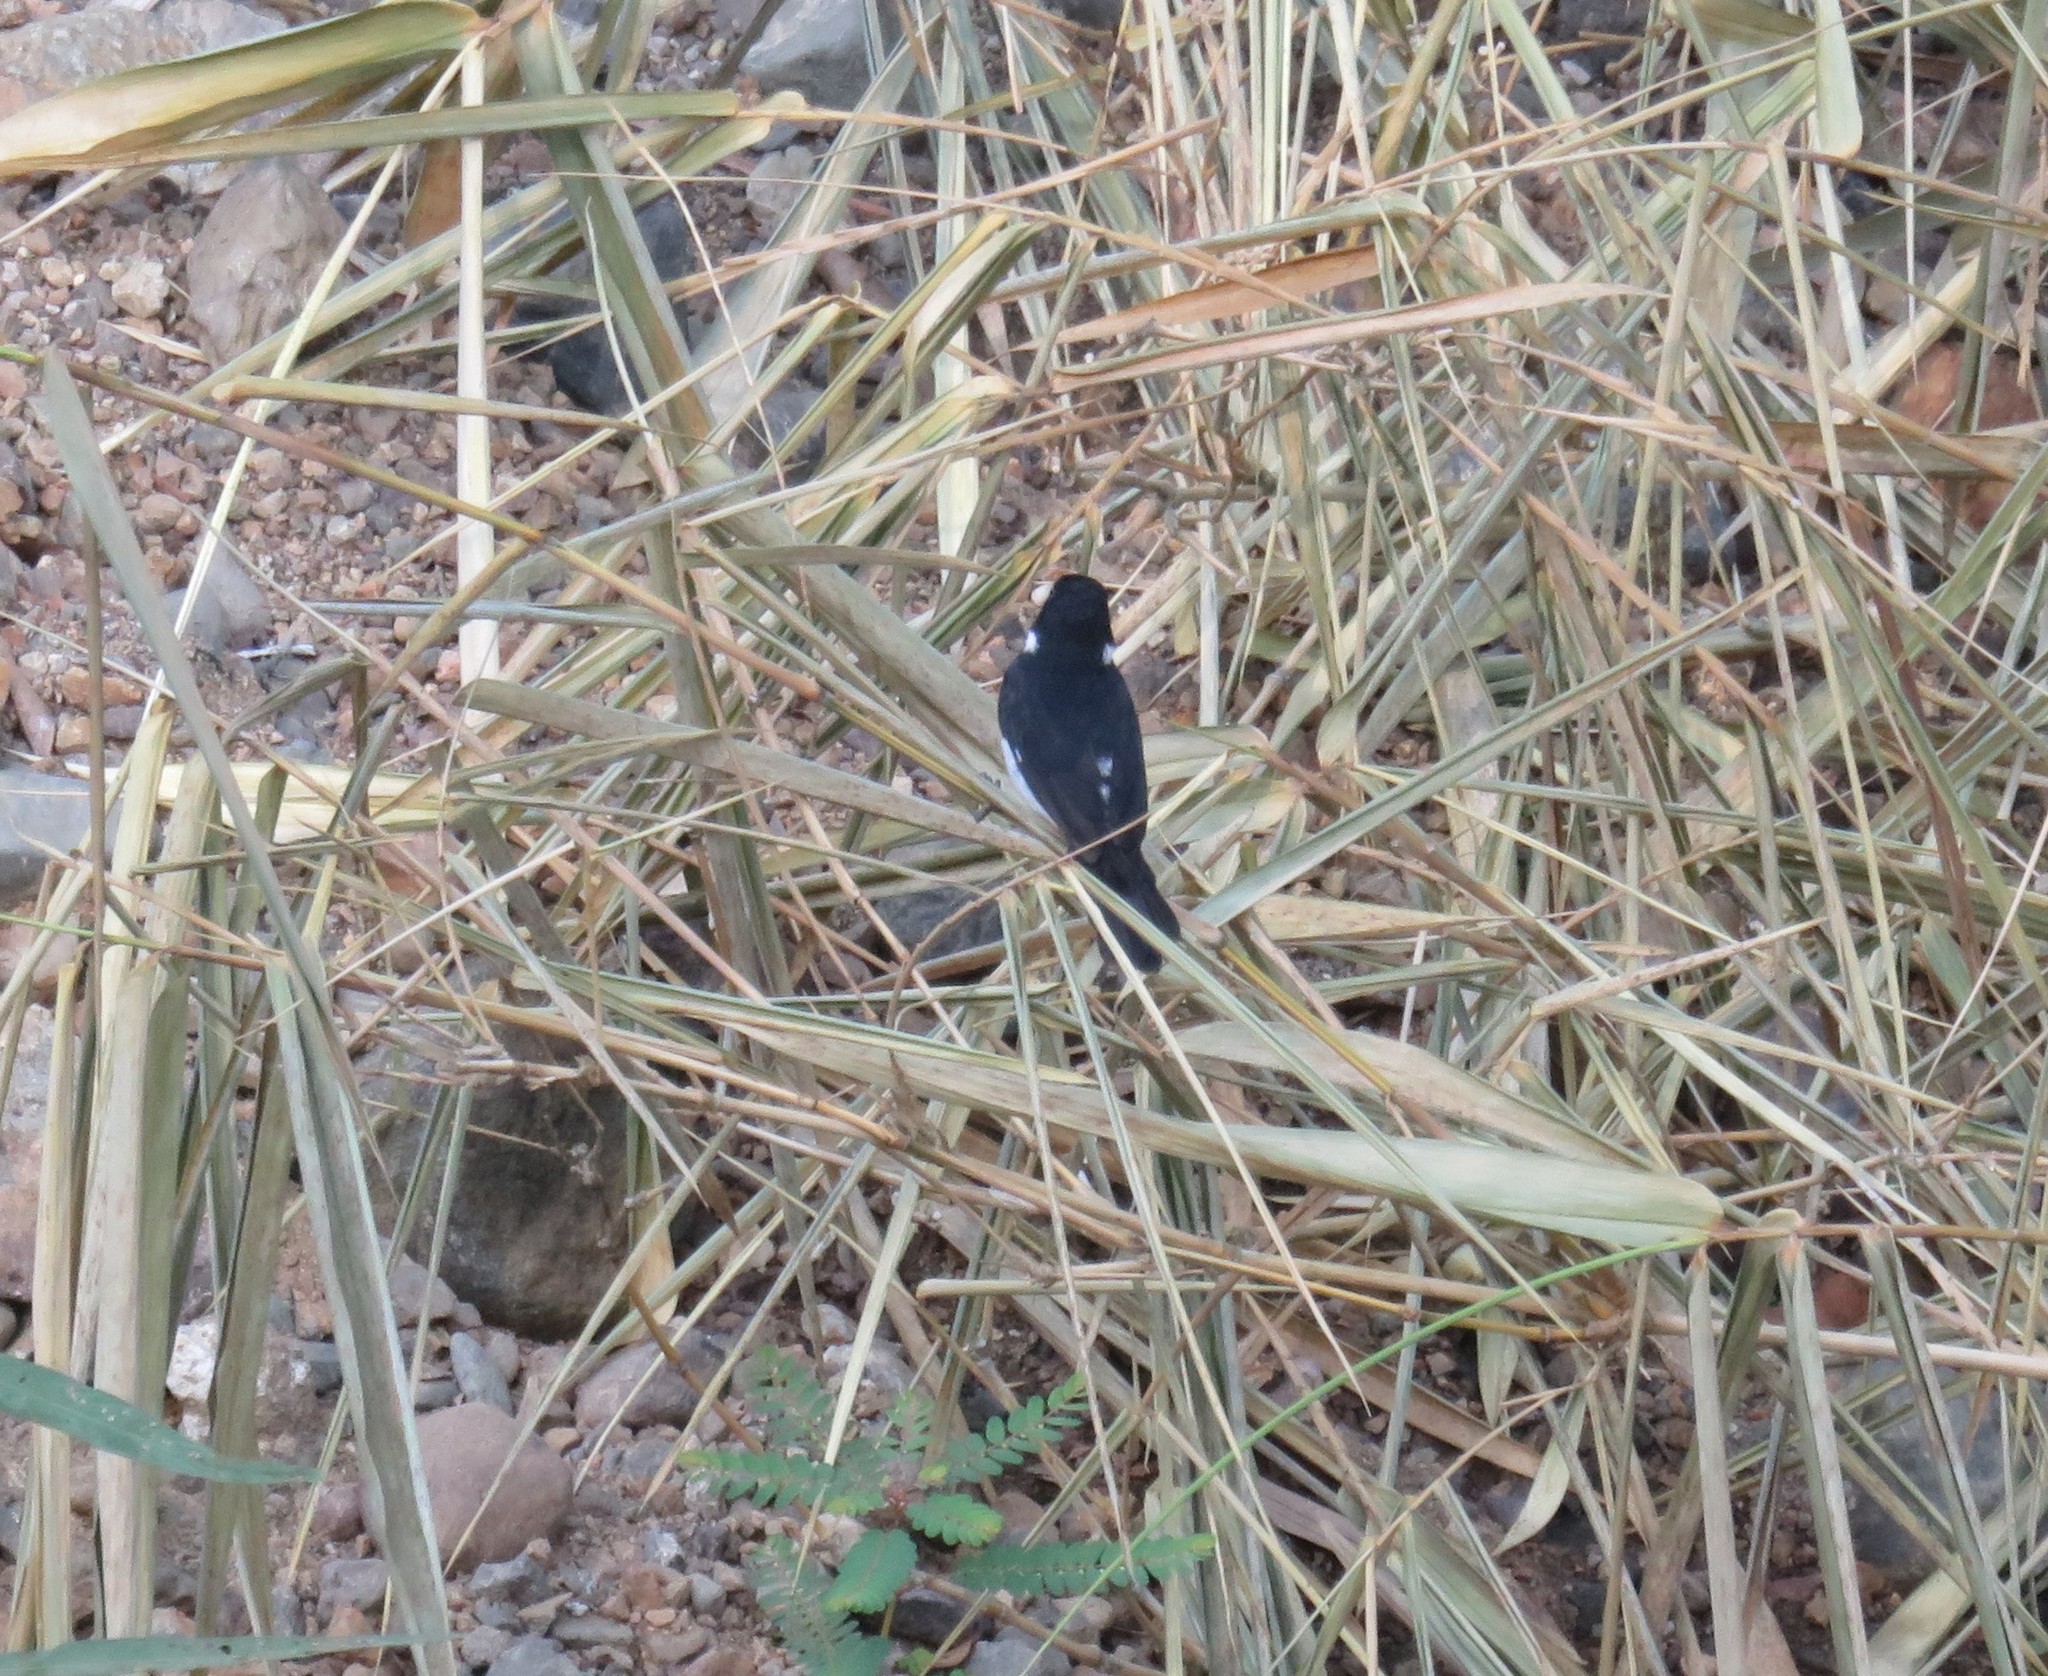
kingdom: Animalia
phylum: Chordata
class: Aves
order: Passeriformes
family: Thraupidae
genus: Sporophila
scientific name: Sporophila corvina
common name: Variable seedeater
